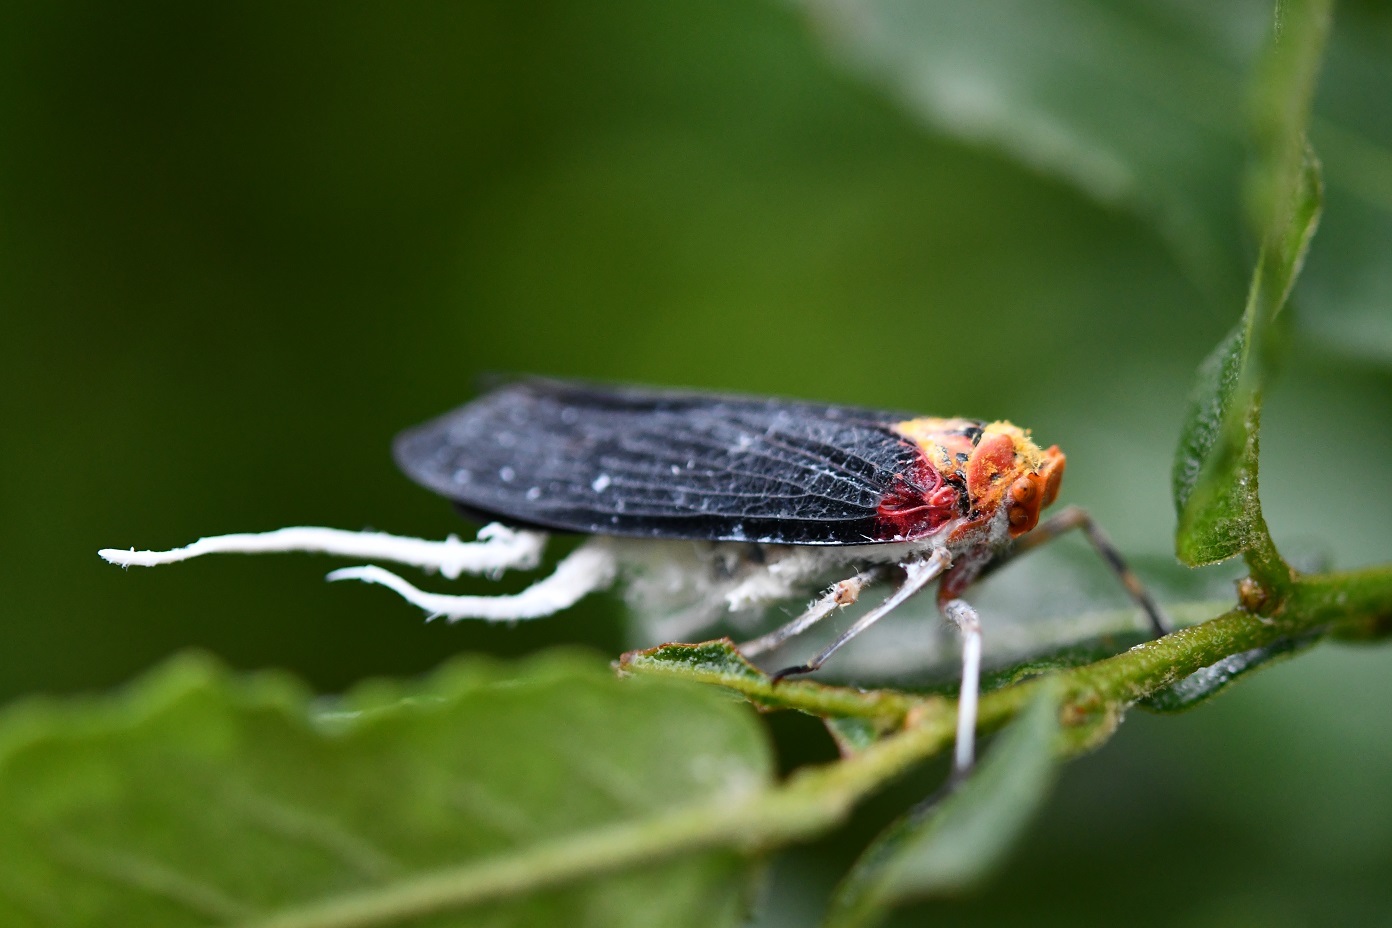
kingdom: Animalia
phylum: Arthropoda
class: Insecta
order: Hemiptera
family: Fulgoridae
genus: Cerogenes
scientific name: Cerogenes auricoma
